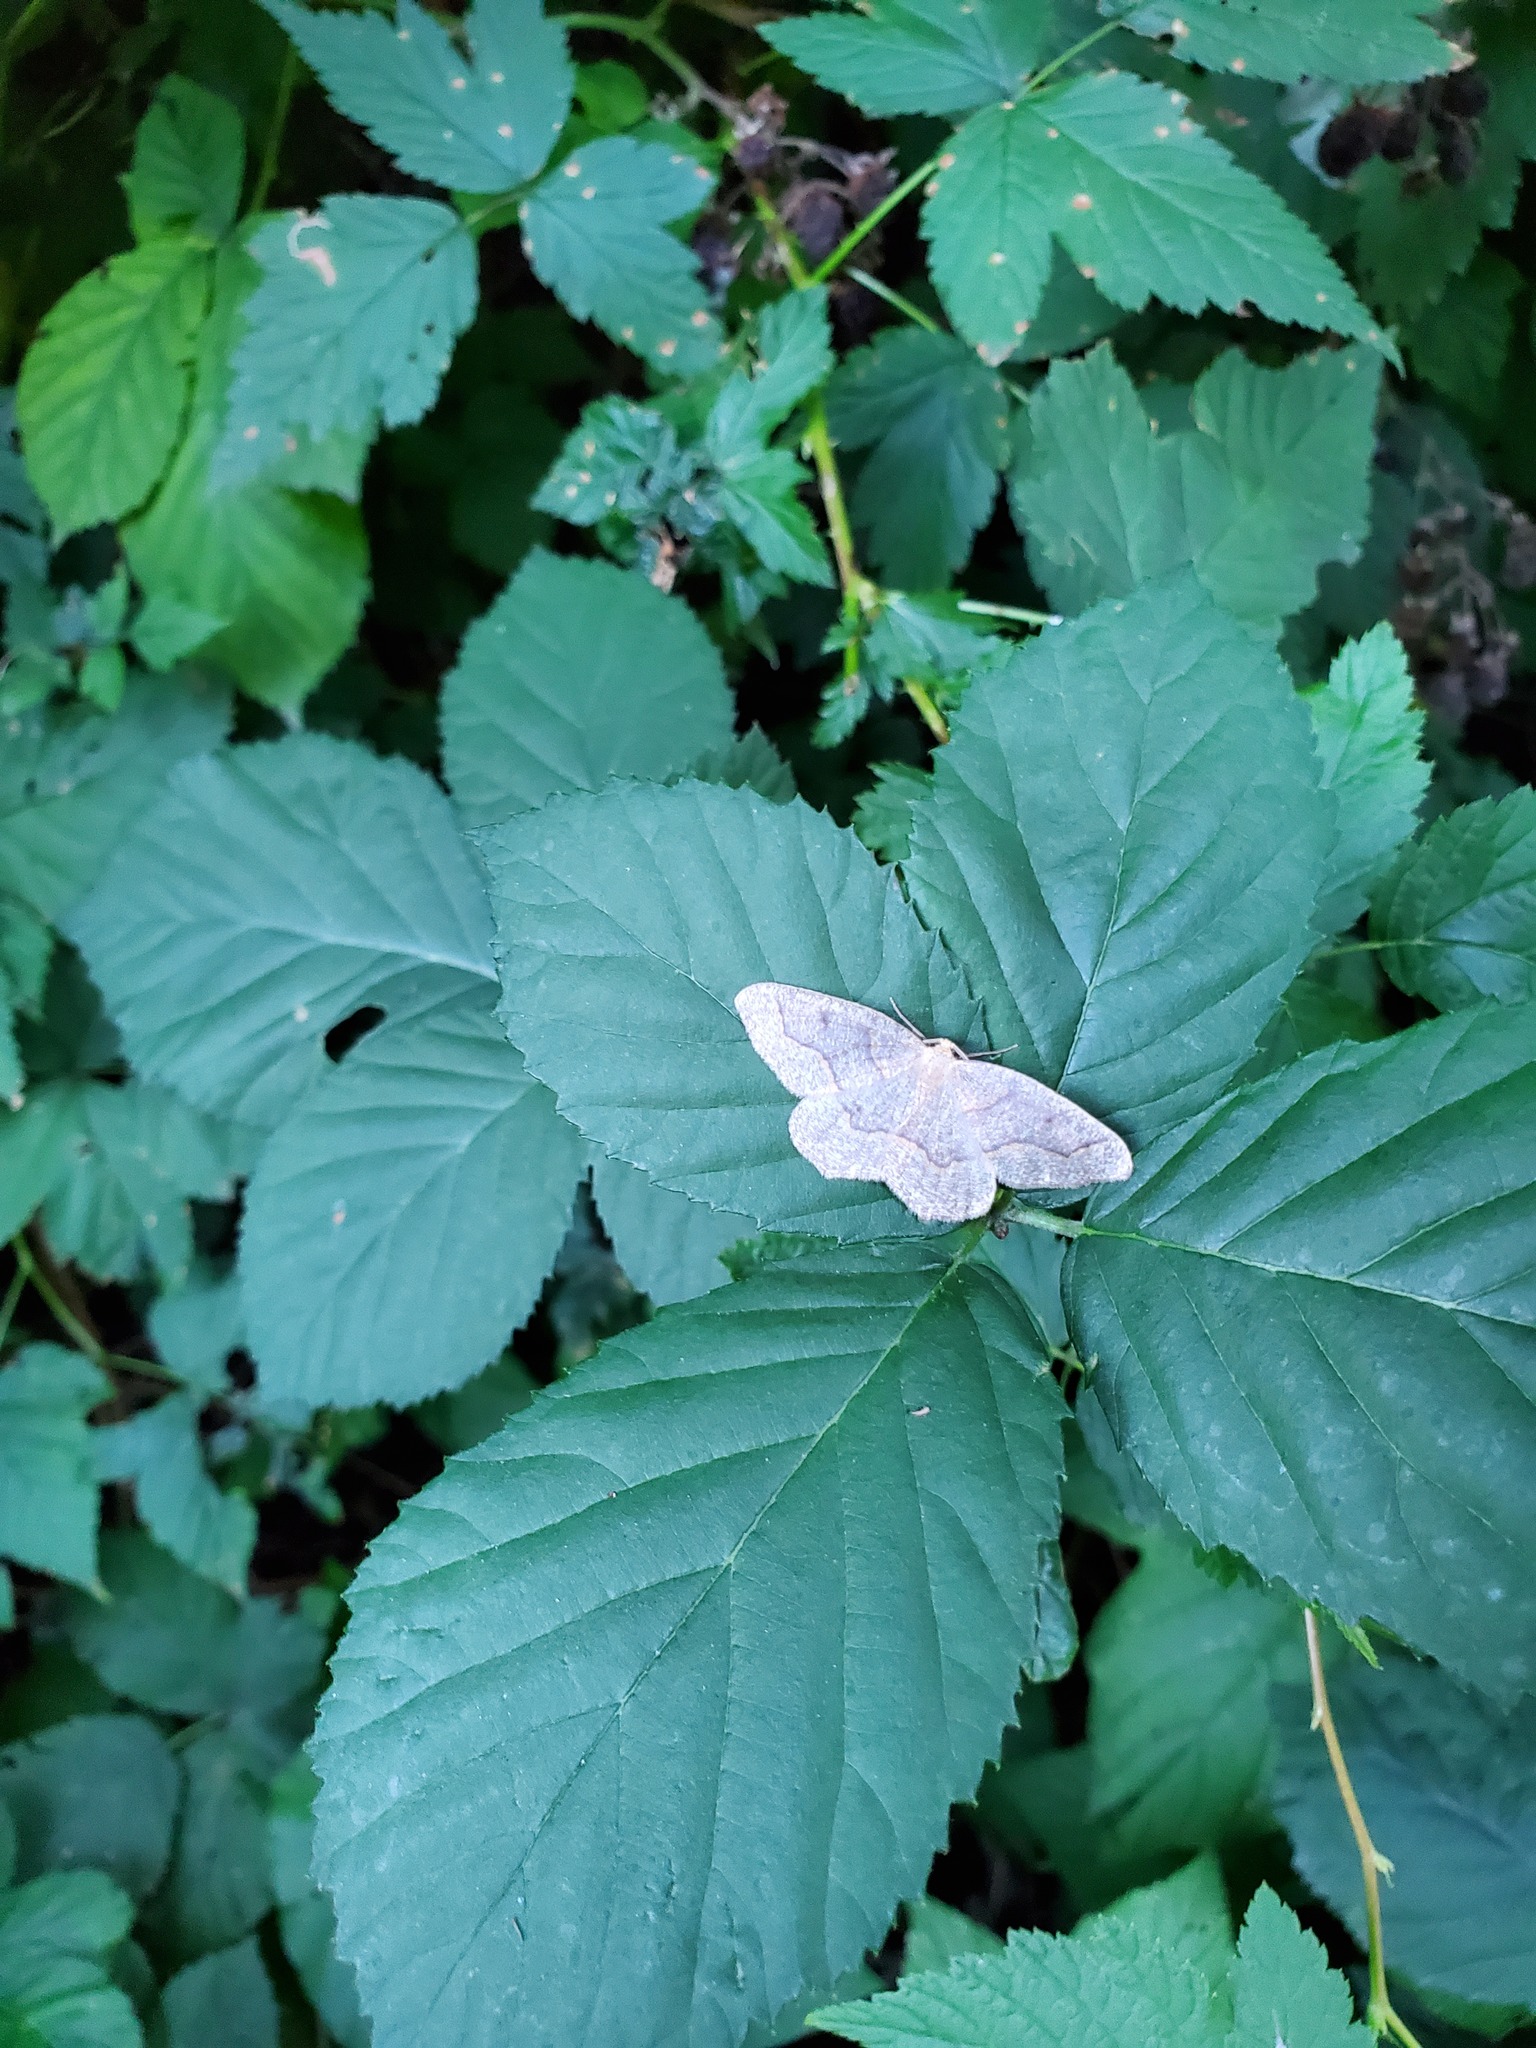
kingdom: Animalia
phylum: Arthropoda
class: Insecta
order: Lepidoptera
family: Geometridae
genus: Lambdina
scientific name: Lambdina fiscellaria
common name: Hemlock looper
